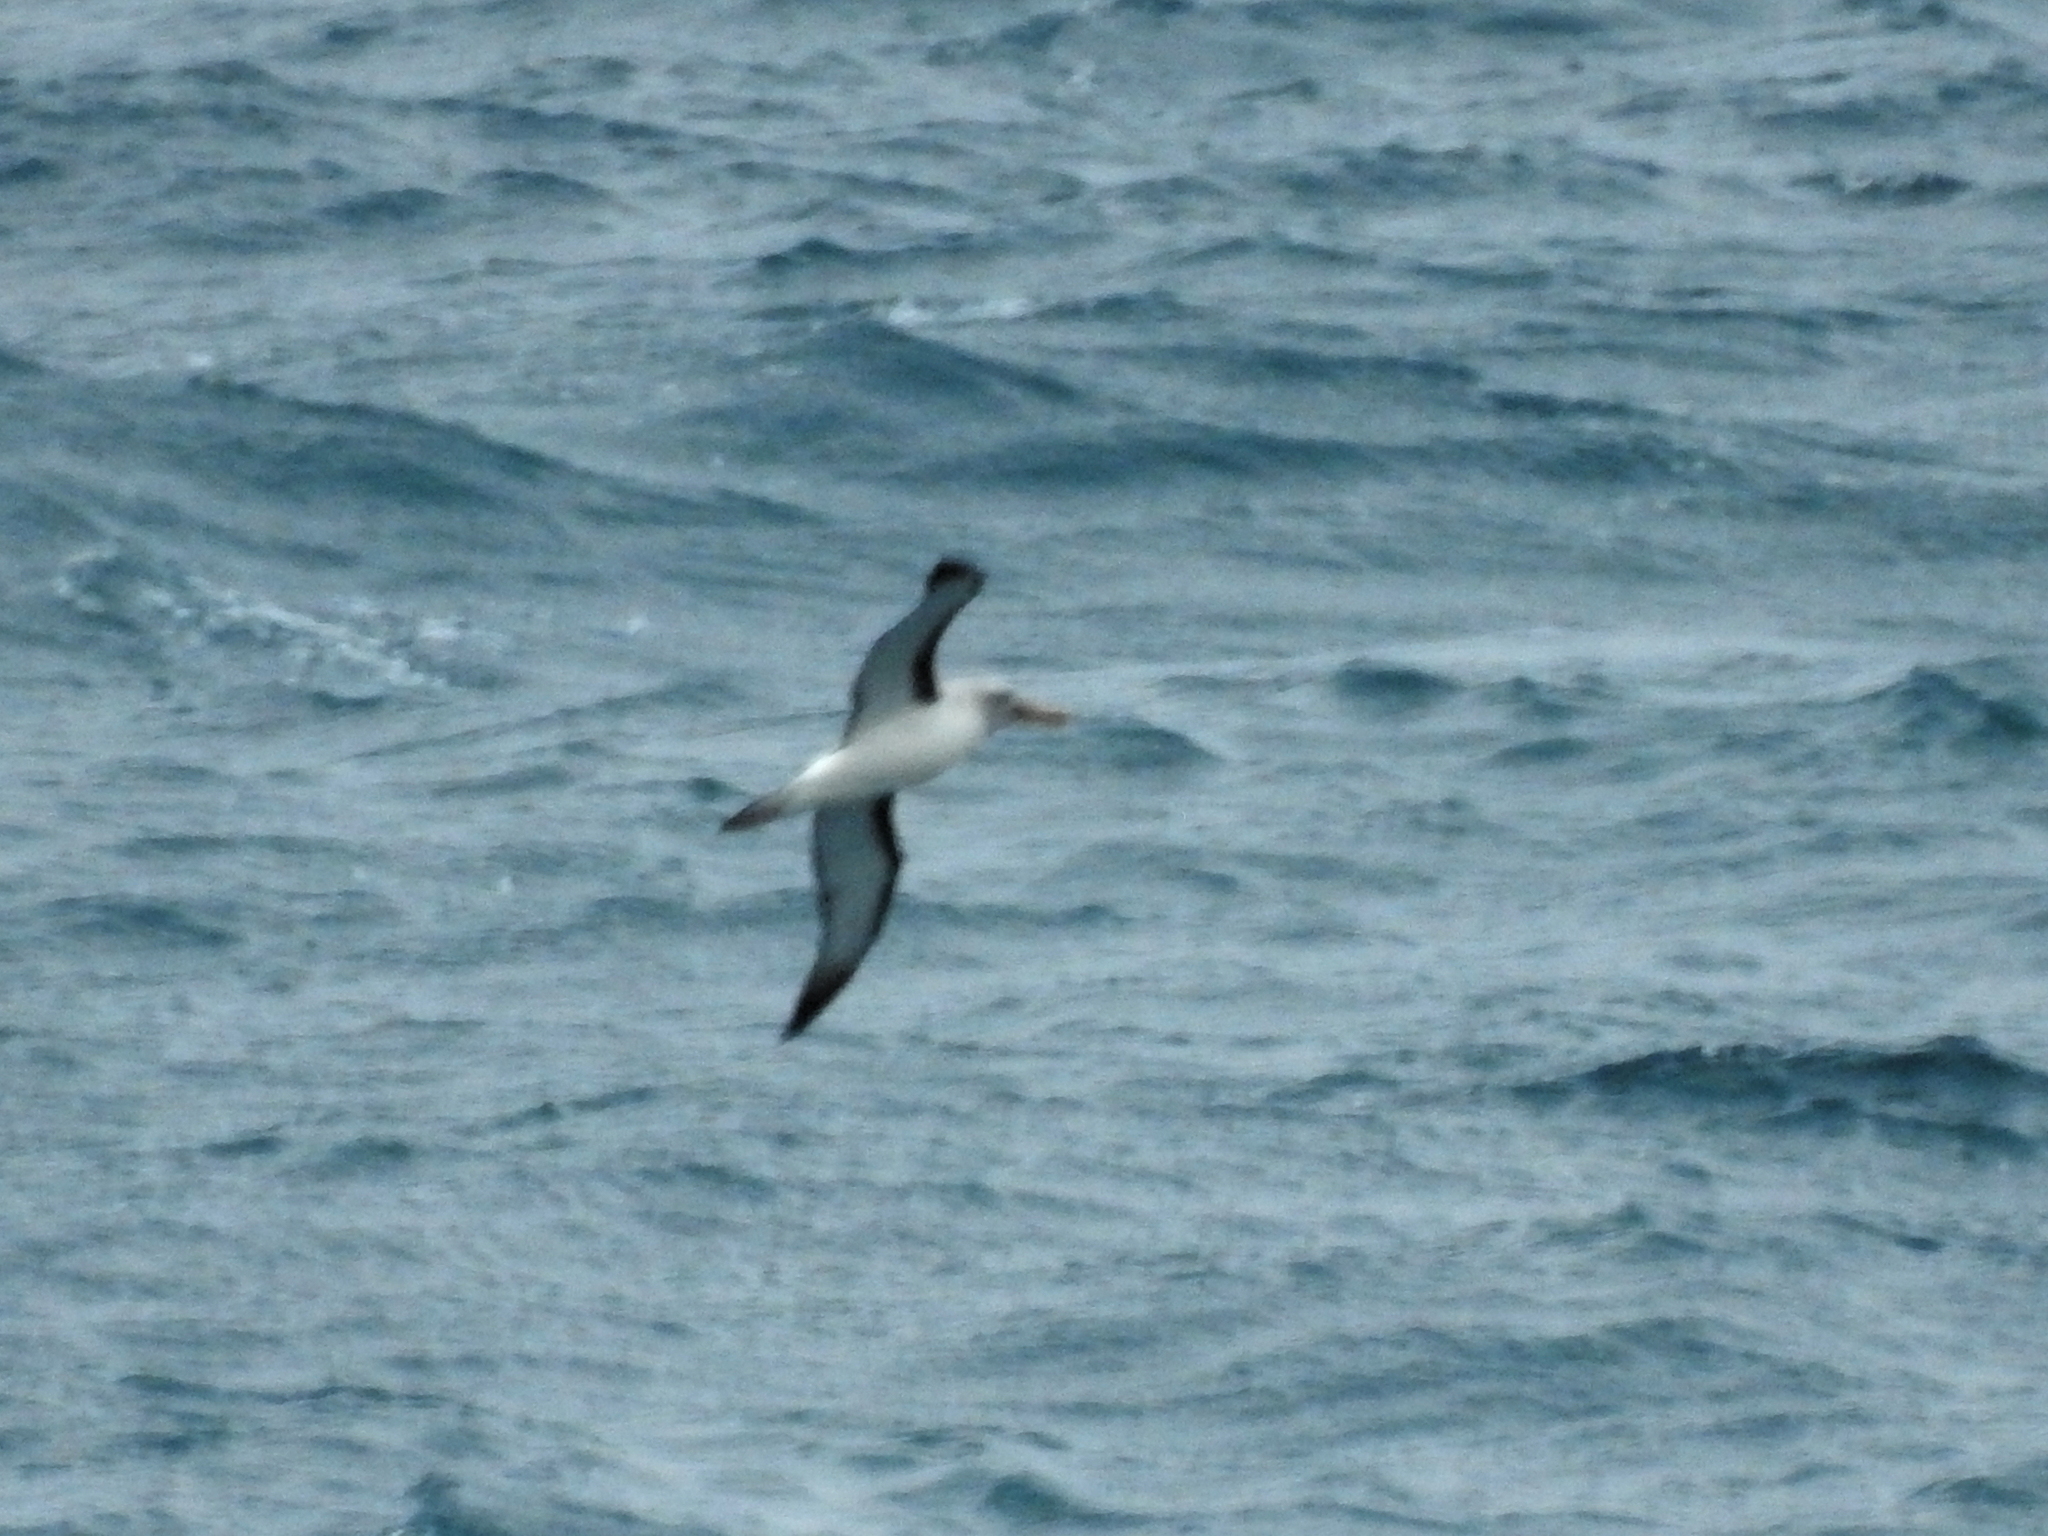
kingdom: Animalia
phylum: Chordata
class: Aves
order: Procellariiformes
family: Diomedeidae
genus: Thalassarche
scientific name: Thalassarche bulleri
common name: Buller's albatross
